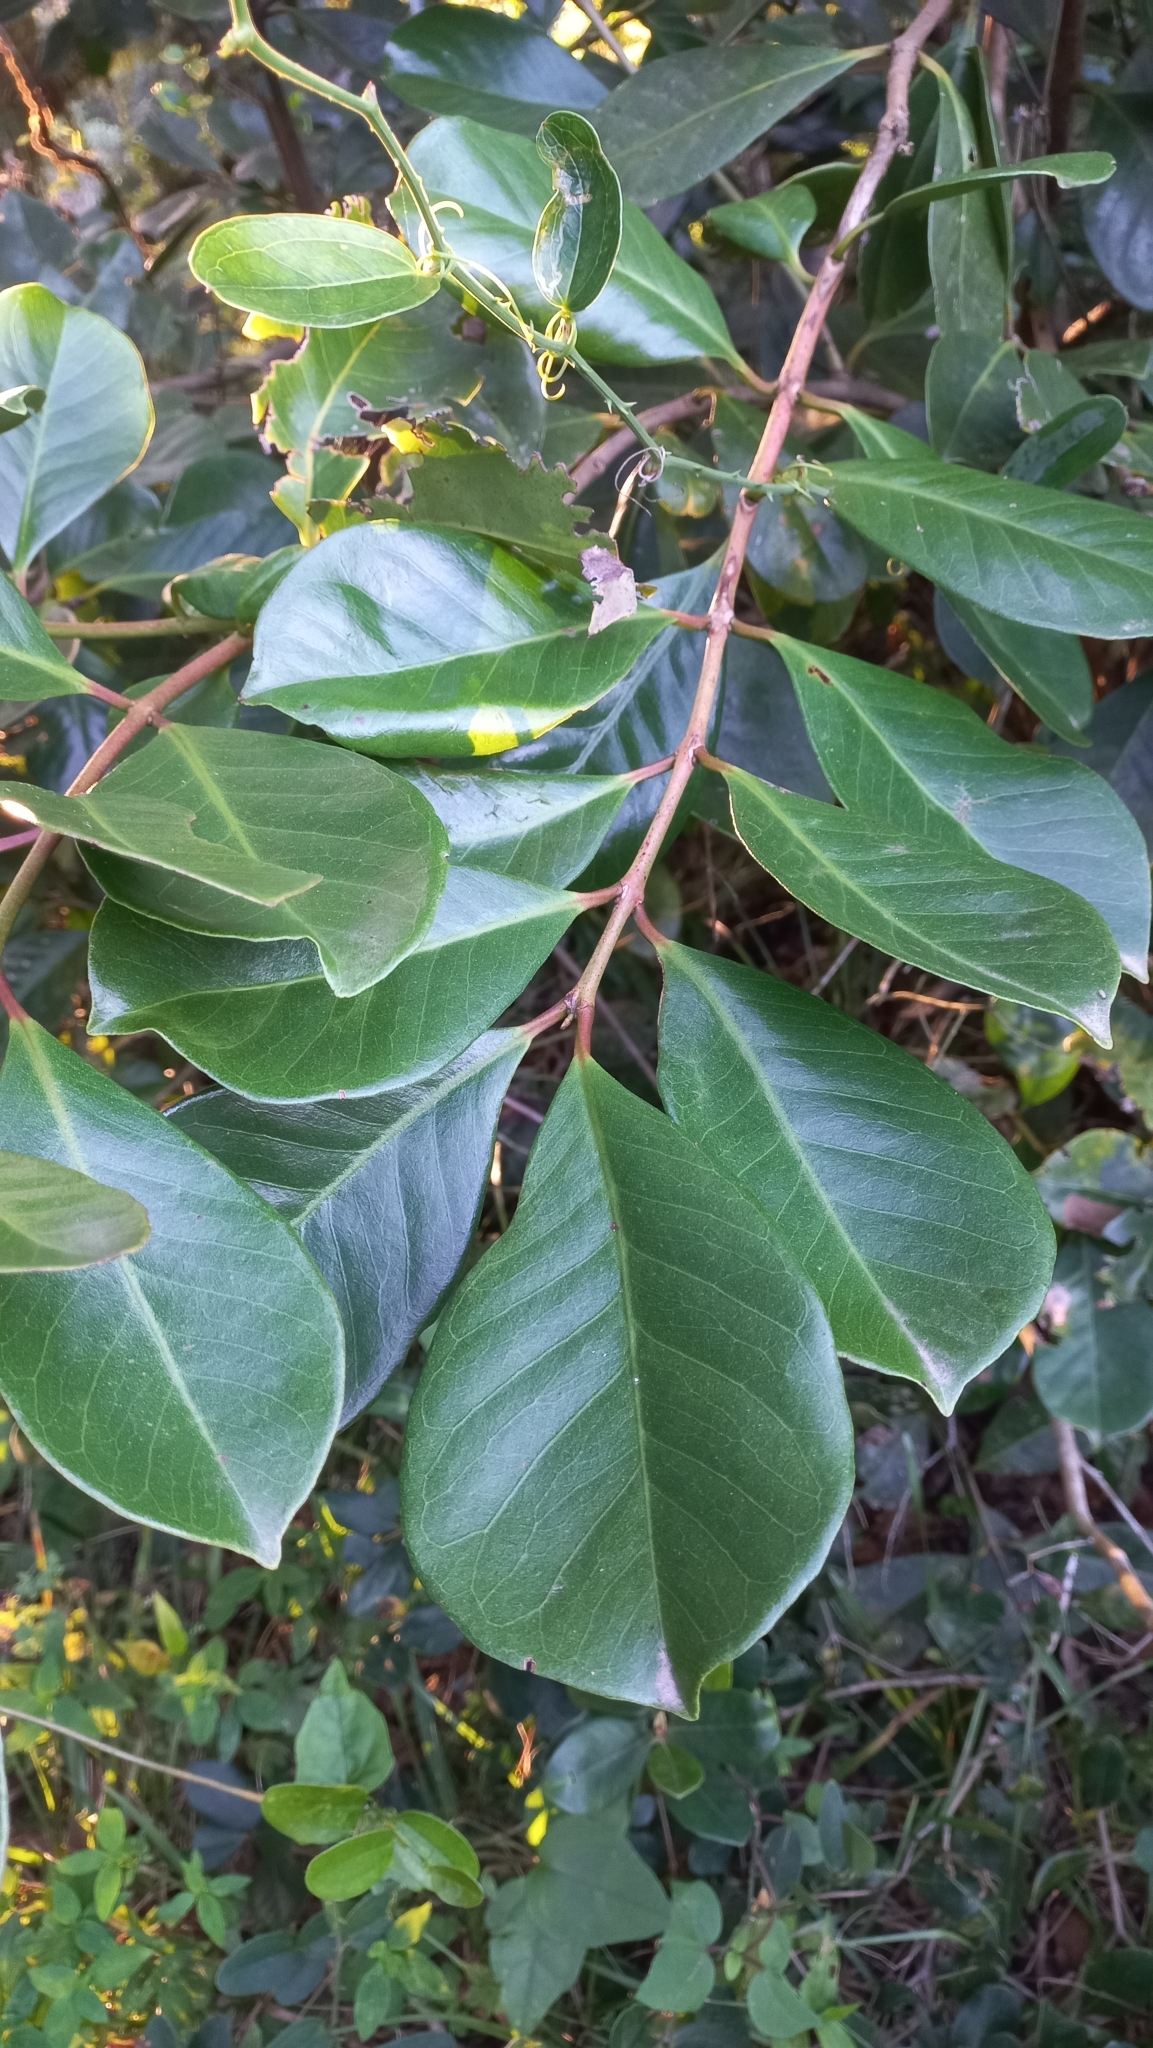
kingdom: Plantae
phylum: Tracheophyta
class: Magnoliopsida
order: Myrtales
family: Myrtaceae
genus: Psidium
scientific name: Psidium cattleianum
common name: Strawberry guava
